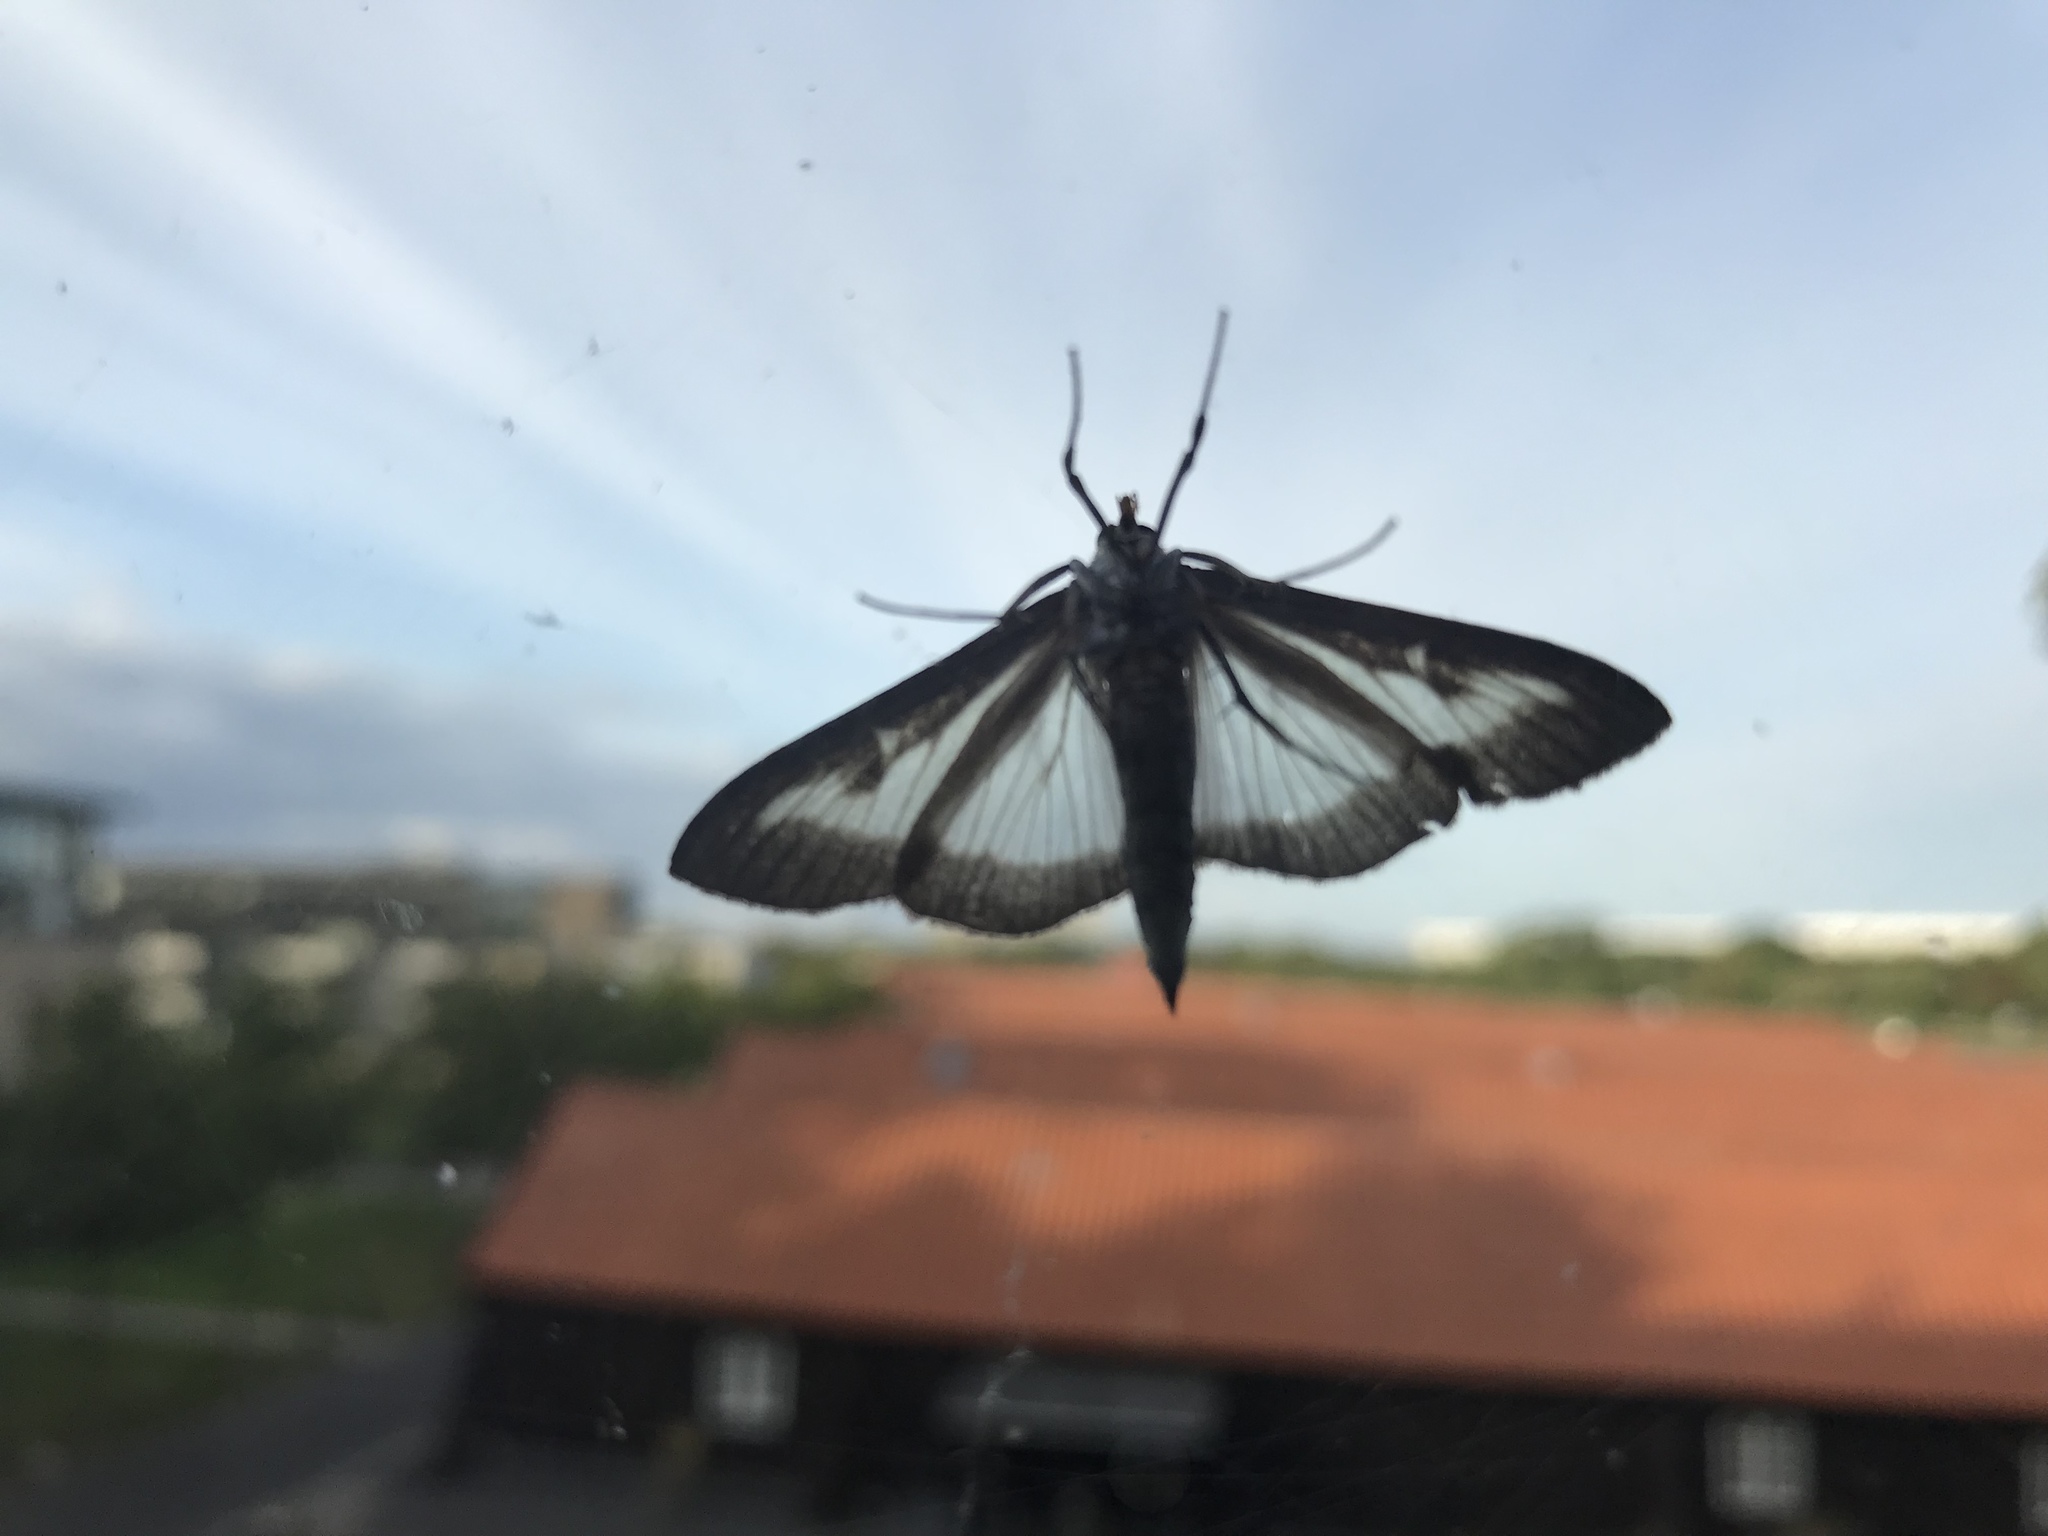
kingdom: Animalia
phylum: Arthropoda
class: Insecta
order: Lepidoptera
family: Crambidae
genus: Cydalima
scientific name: Cydalima perspectalis
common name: Box tree moth
